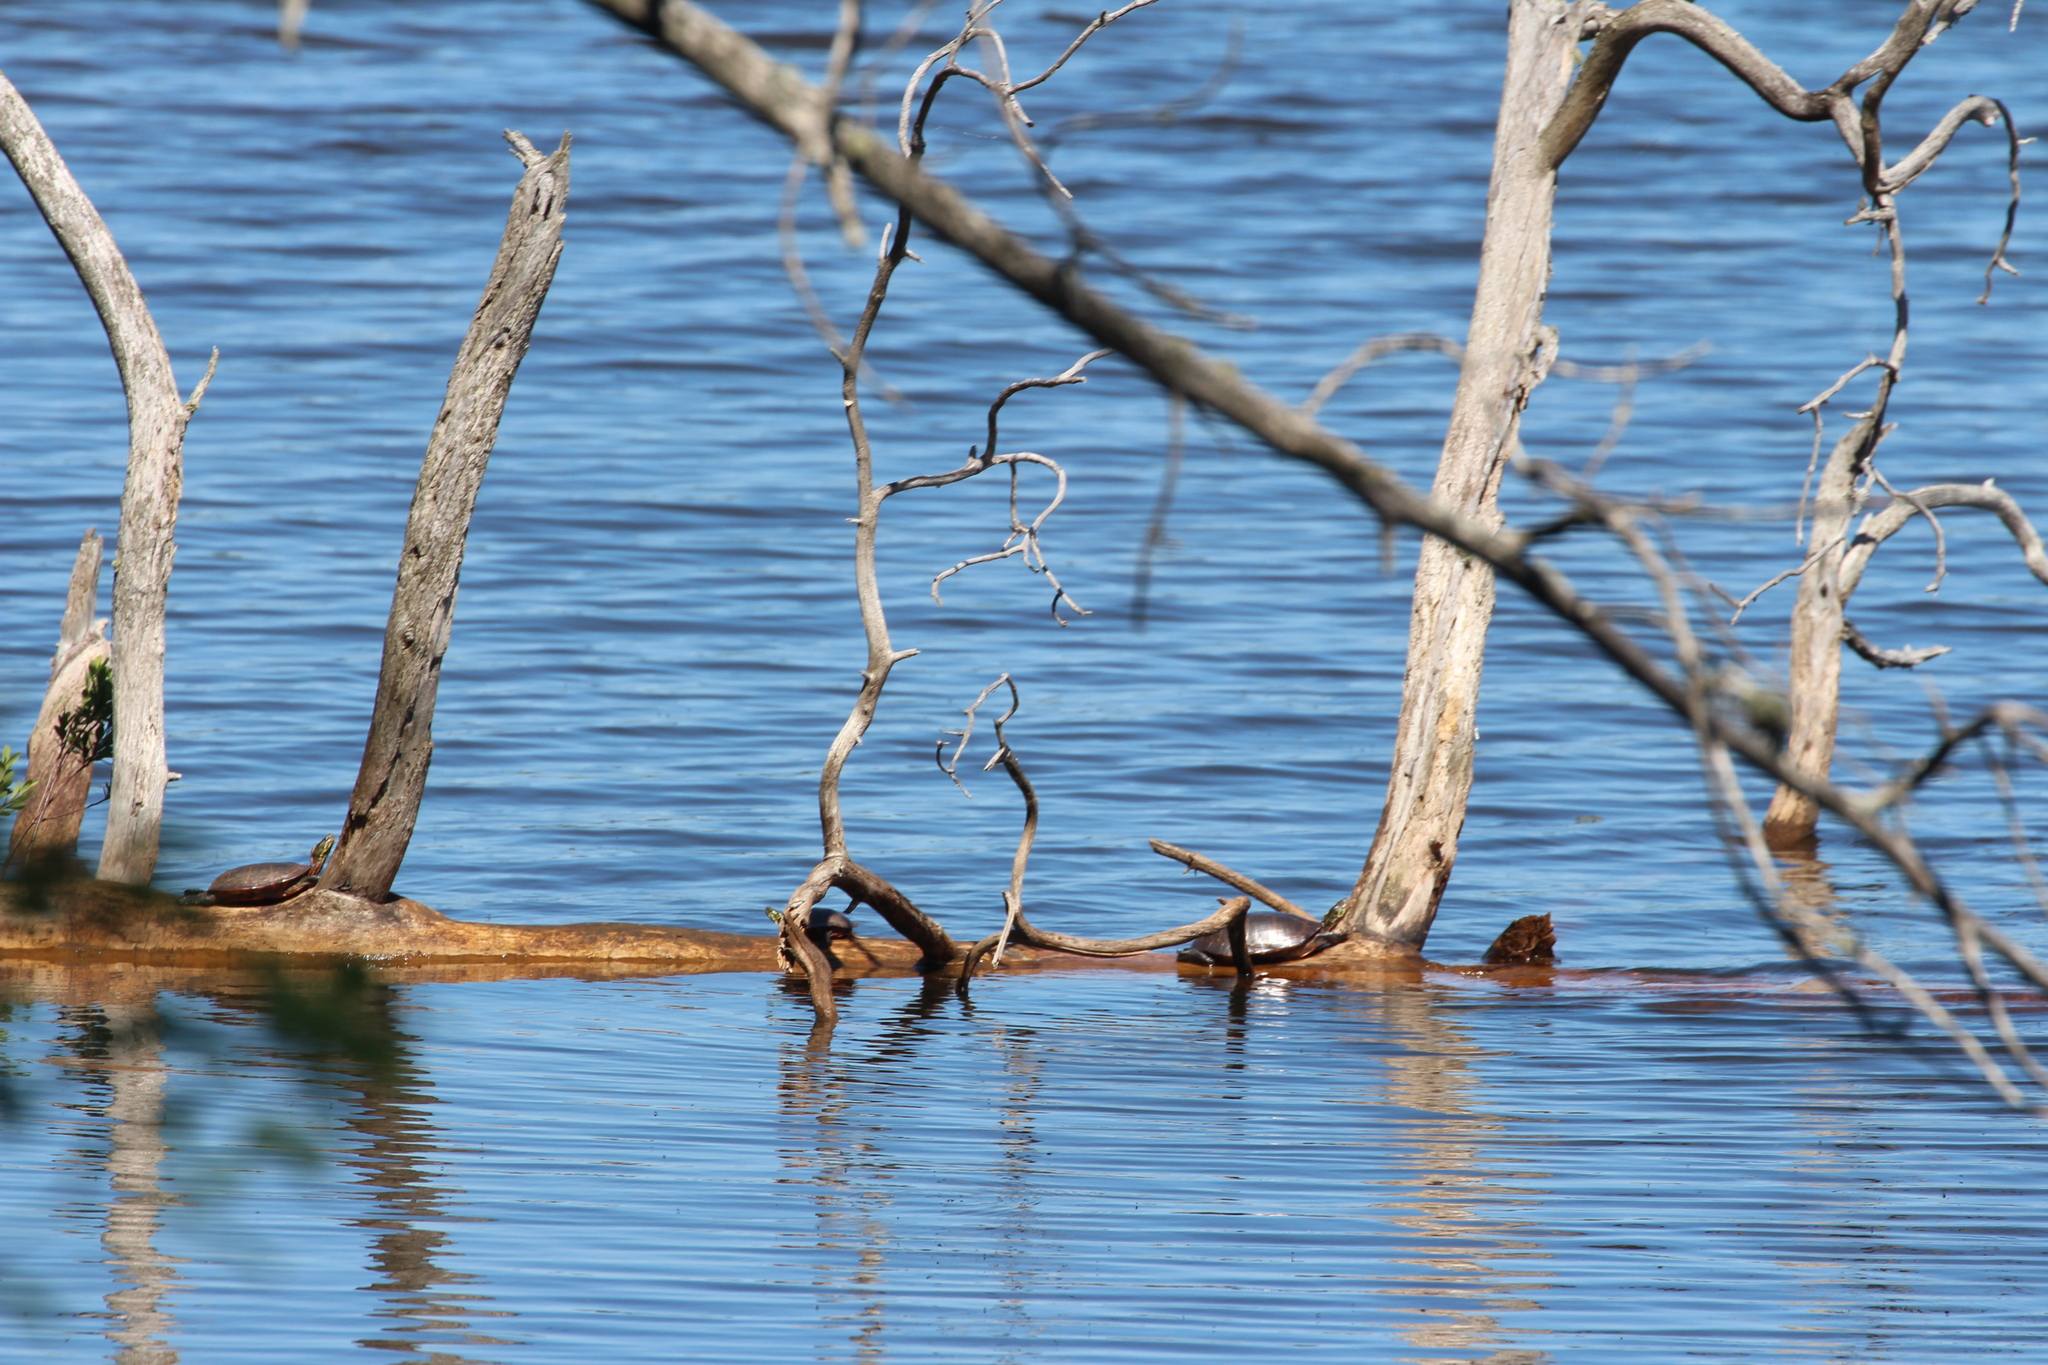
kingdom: Animalia
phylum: Chordata
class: Testudines
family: Emydidae
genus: Chrysemys
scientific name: Chrysemys picta
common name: Painted turtle
